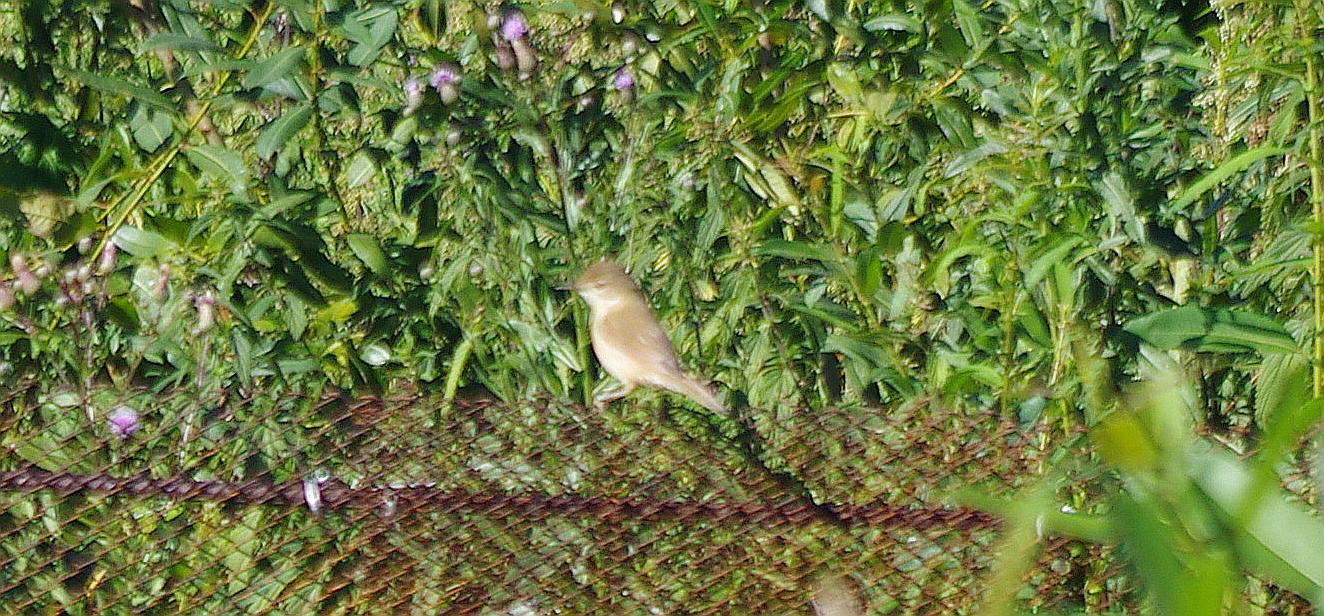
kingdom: Animalia
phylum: Chordata
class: Aves
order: Passeriformes
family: Acrocephalidae
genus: Acrocephalus
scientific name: Acrocephalus dumetorum
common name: Blyth's reed warbler
